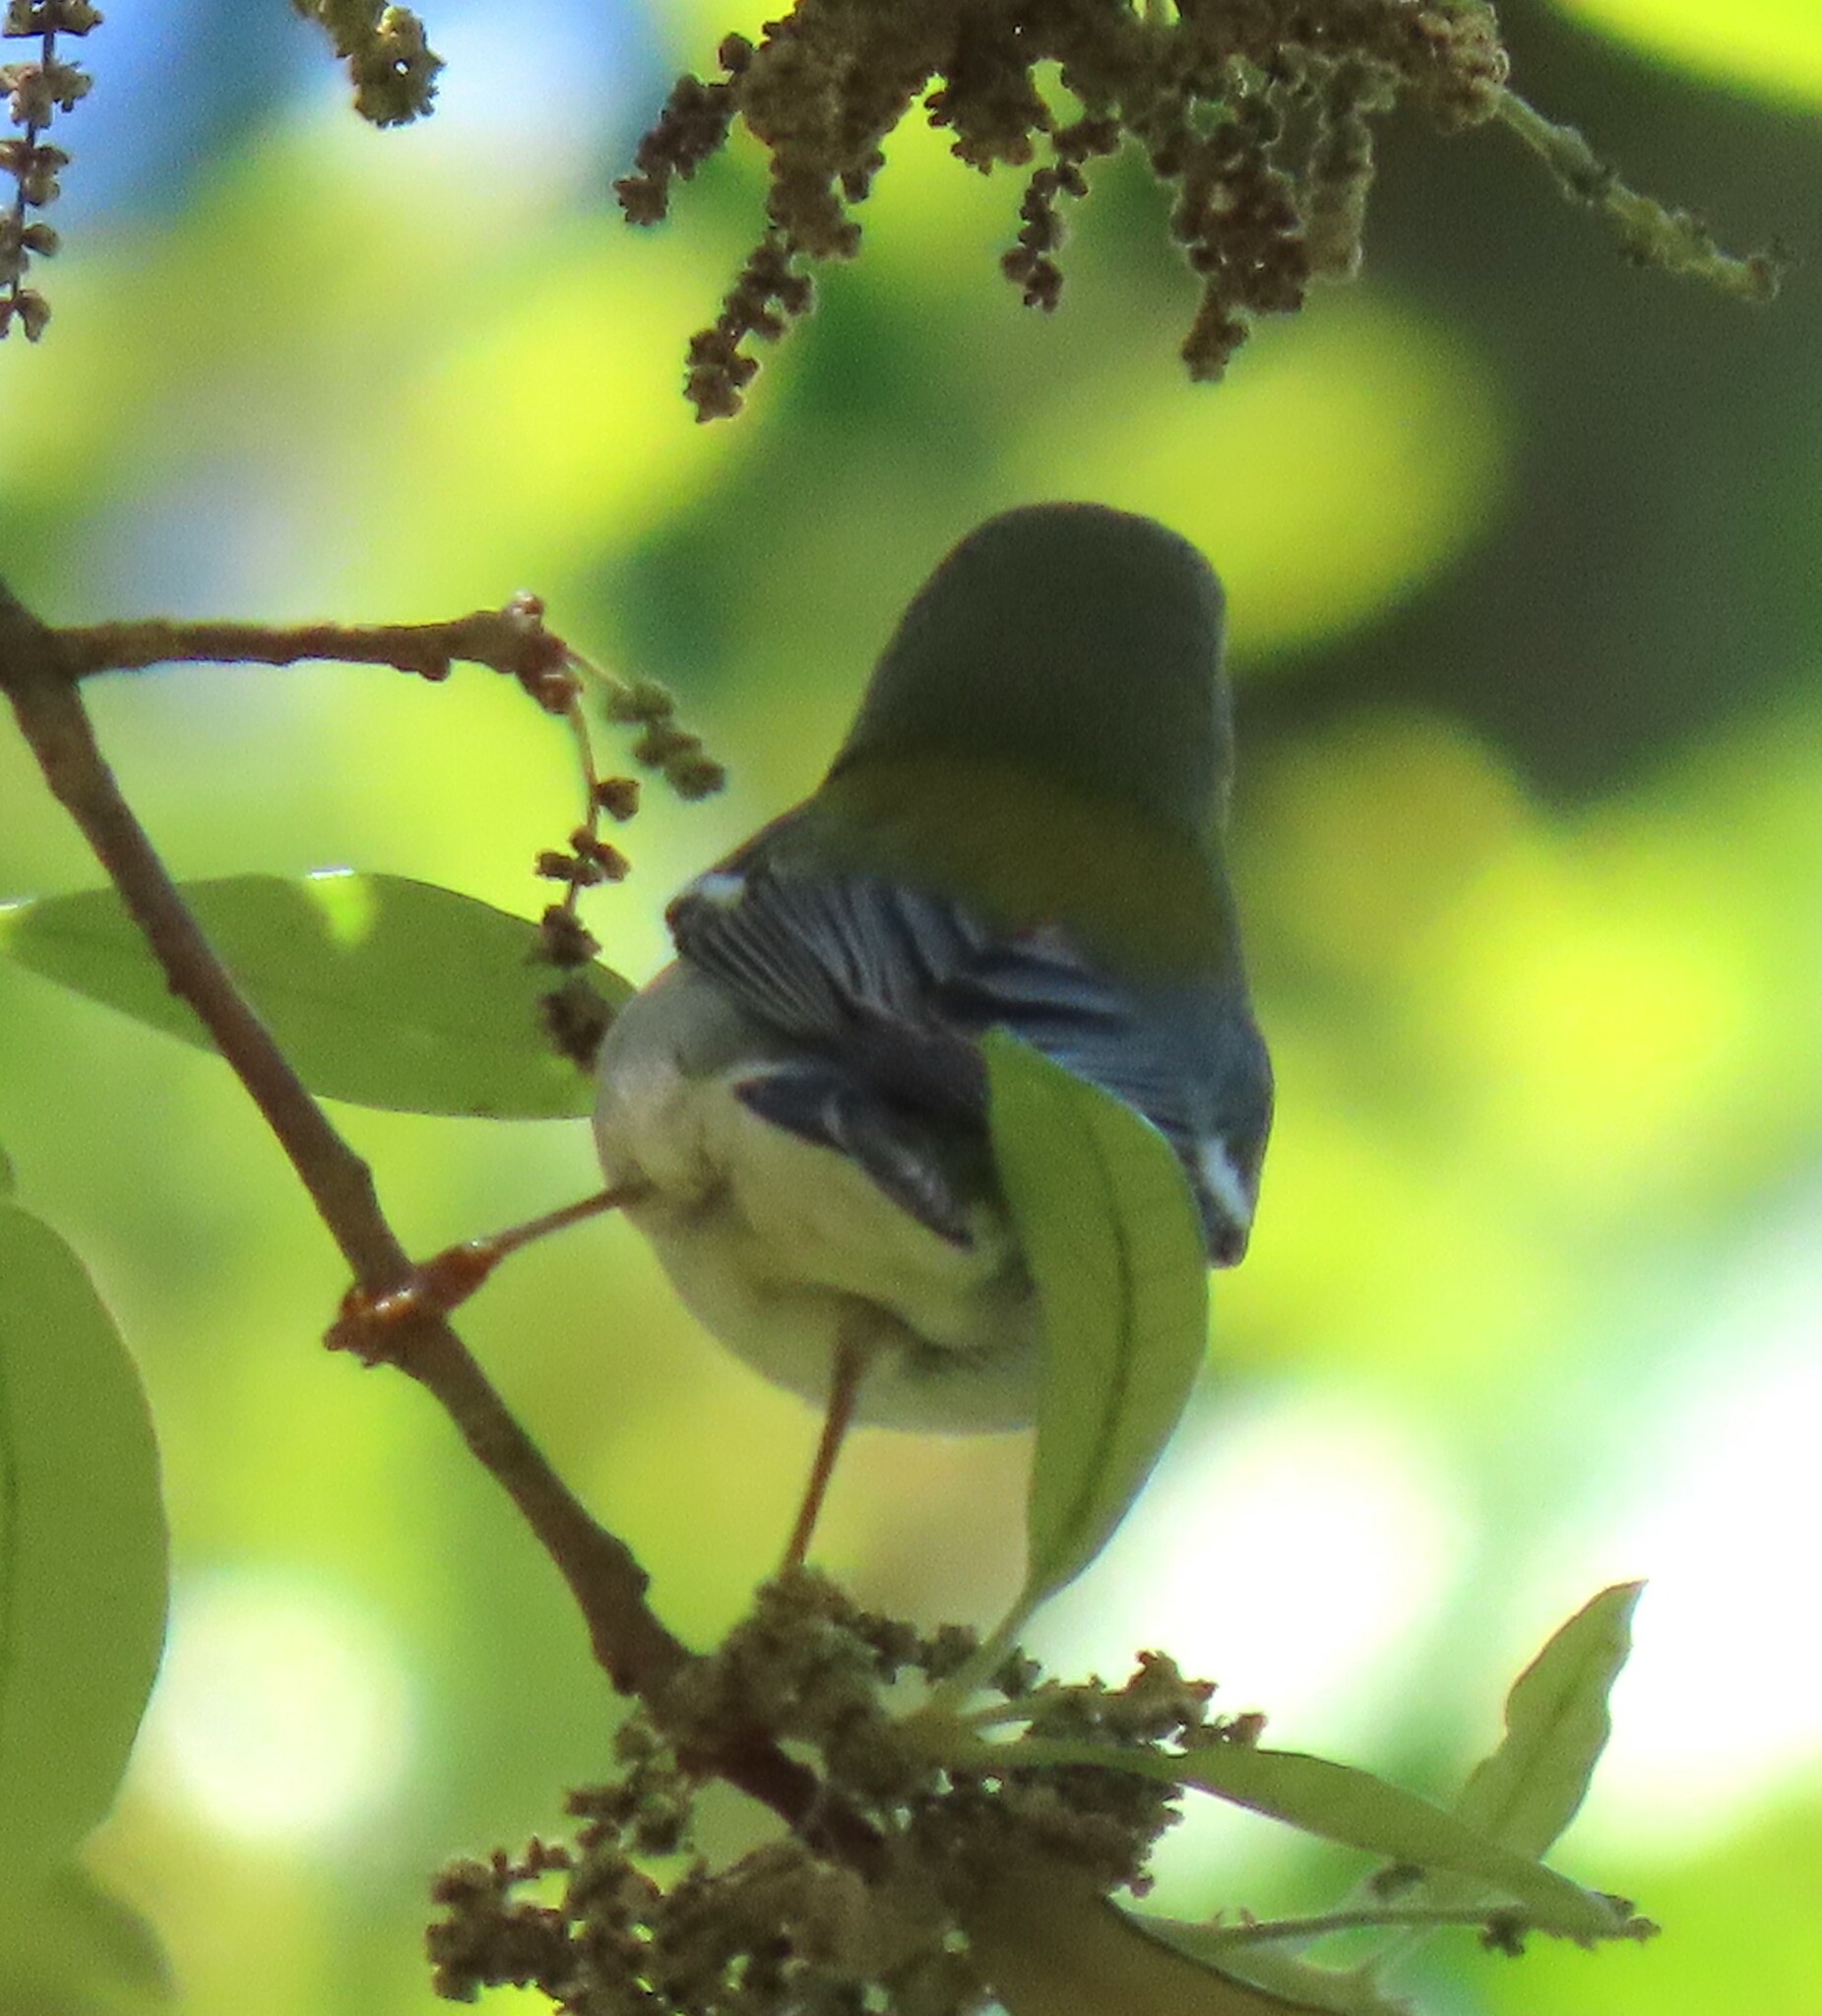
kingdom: Animalia
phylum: Chordata
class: Aves
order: Passeriformes
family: Parulidae
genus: Setophaga
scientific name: Setophaga americana
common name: Northern parula
